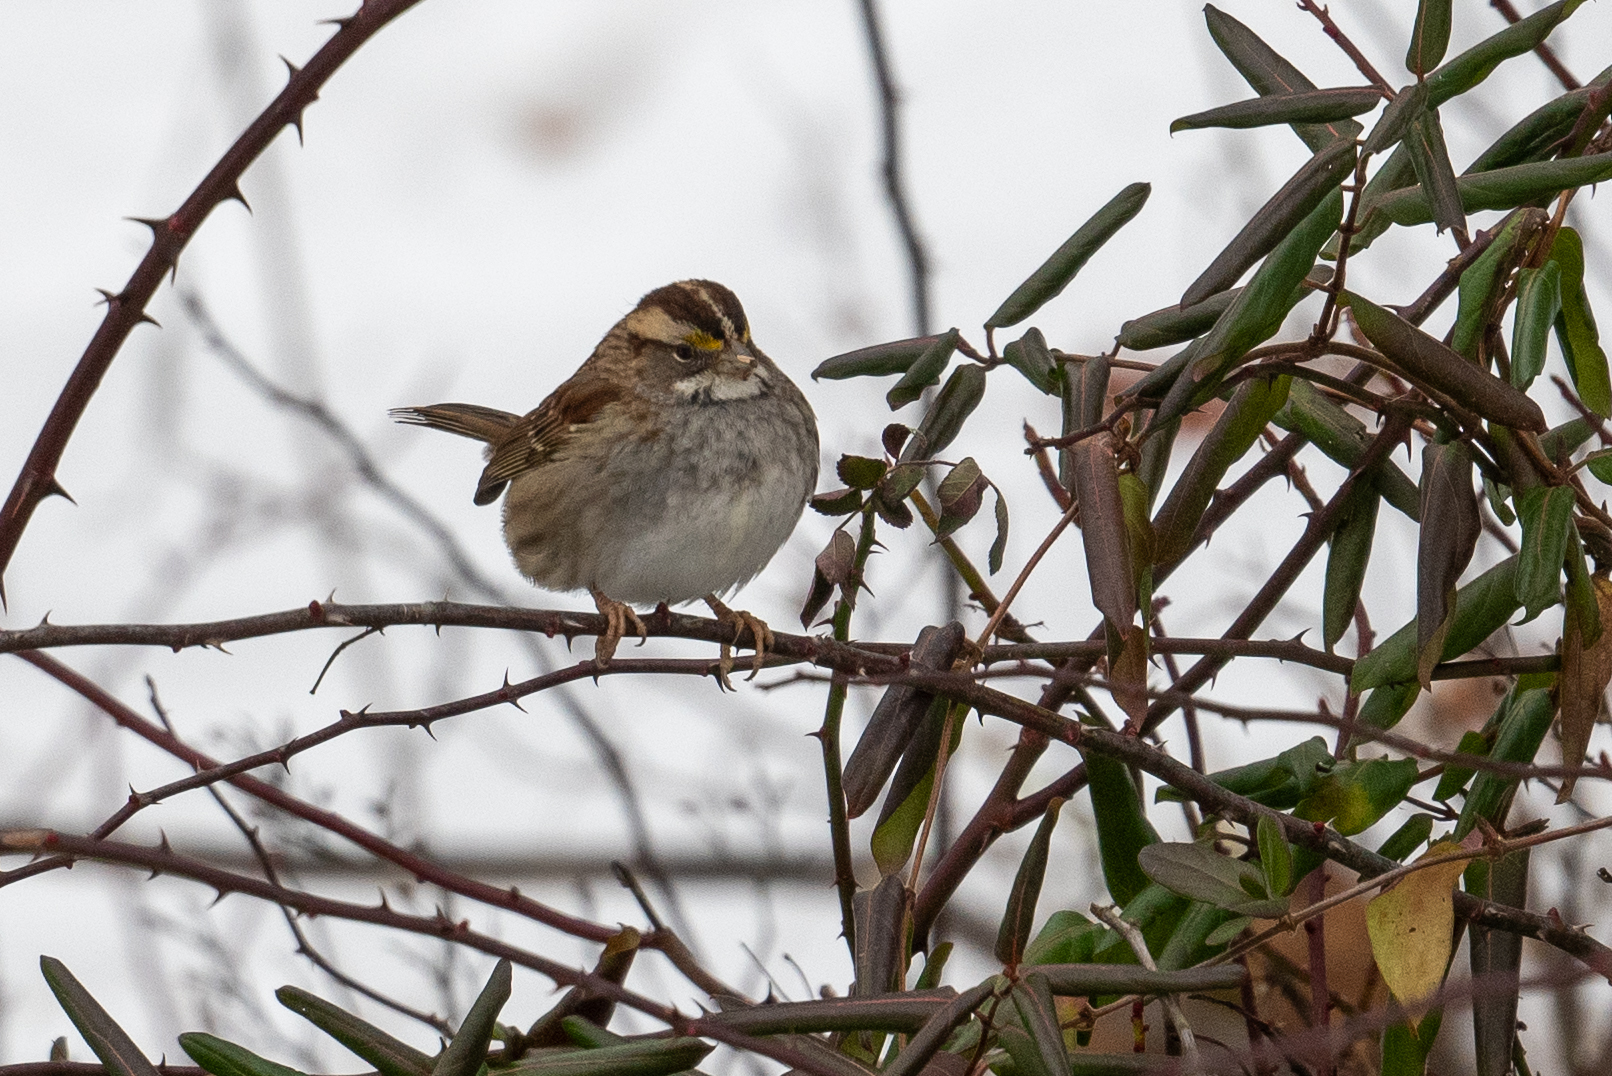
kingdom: Animalia
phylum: Chordata
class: Aves
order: Passeriformes
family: Passerellidae
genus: Zonotrichia
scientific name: Zonotrichia albicollis
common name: White-throated sparrow
